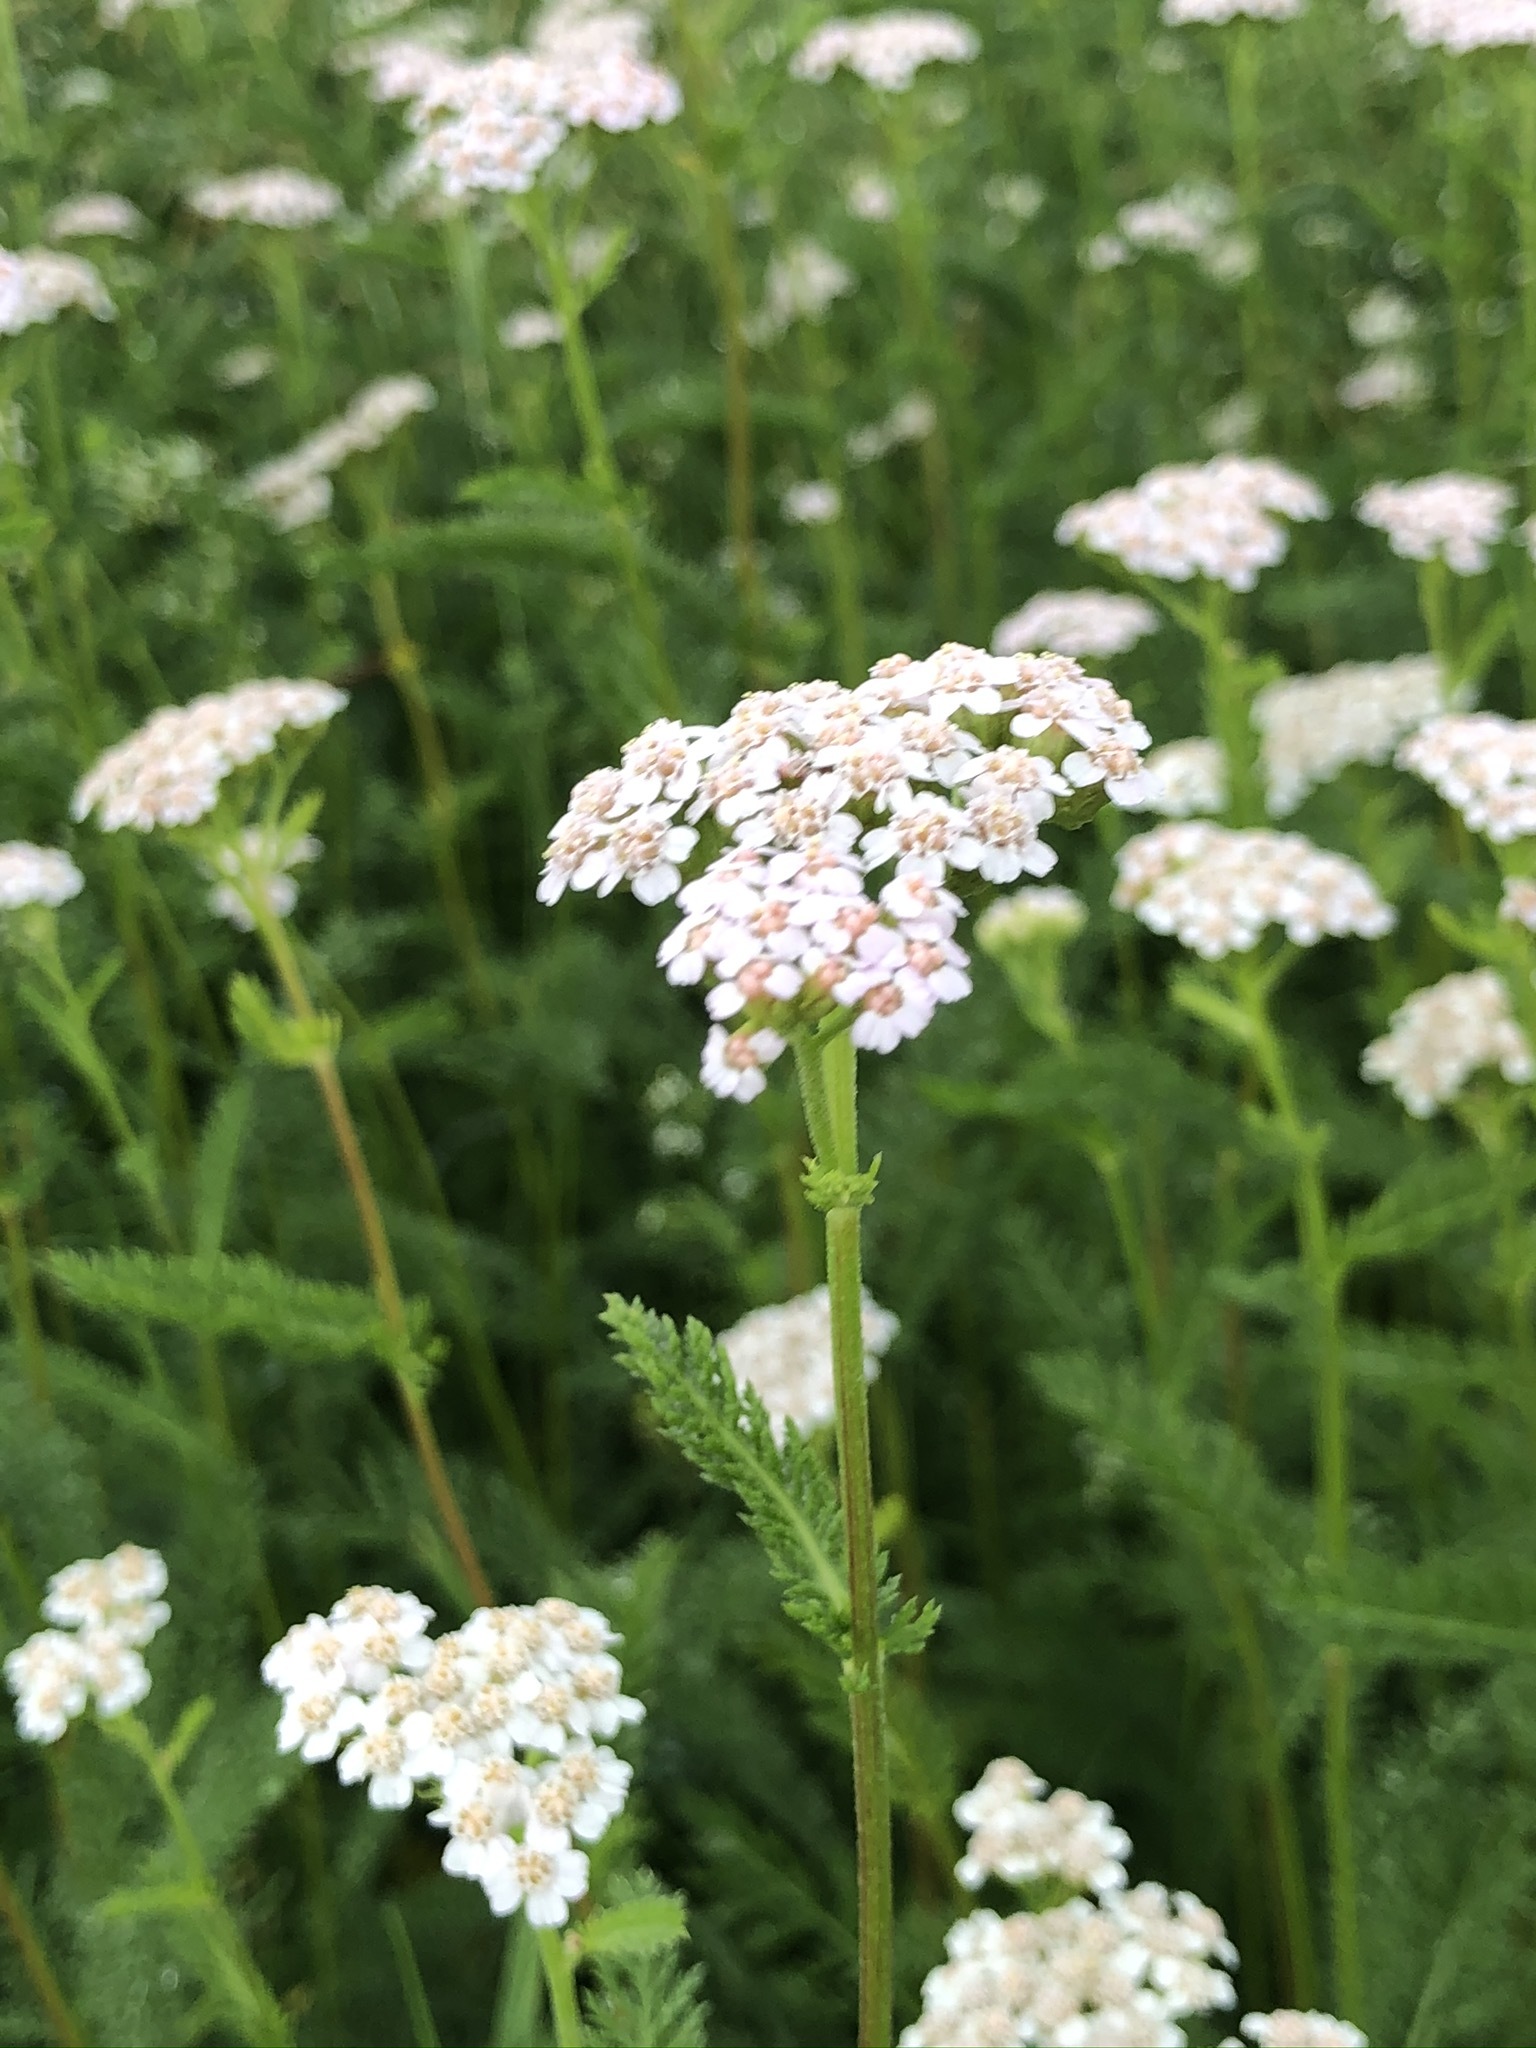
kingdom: Plantae
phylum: Tracheophyta
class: Magnoliopsida
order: Asterales
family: Asteraceae
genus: Achillea
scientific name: Achillea millefolium
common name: Yarrow
